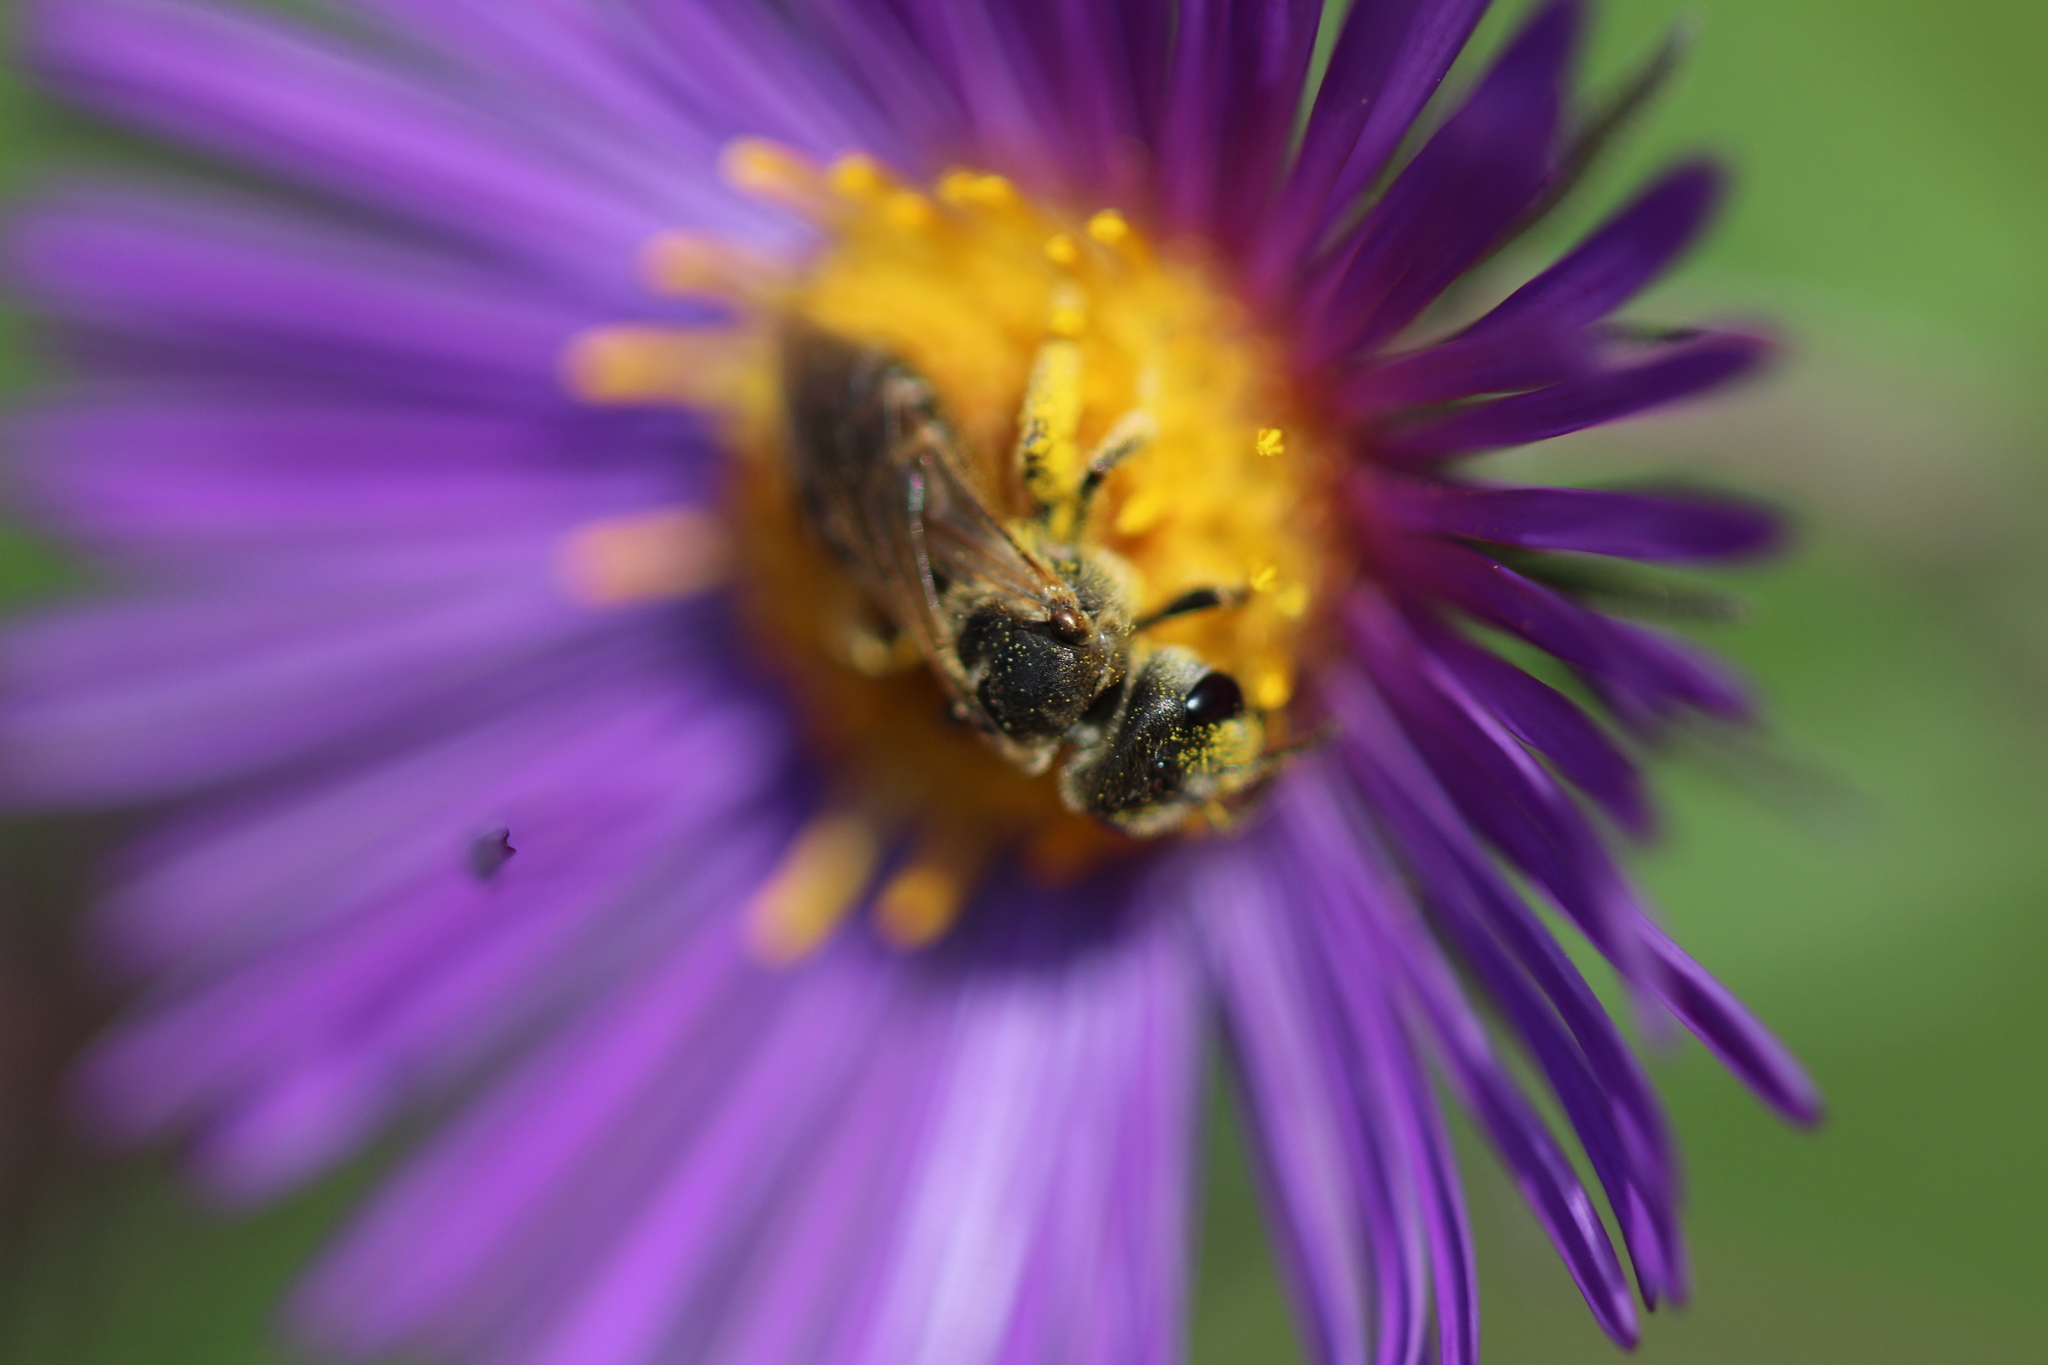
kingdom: Animalia
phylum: Arthropoda
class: Insecta
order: Hymenoptera
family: Halictidae
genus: Halictus
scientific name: Halictus ligatus
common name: Ligated furrow bee
